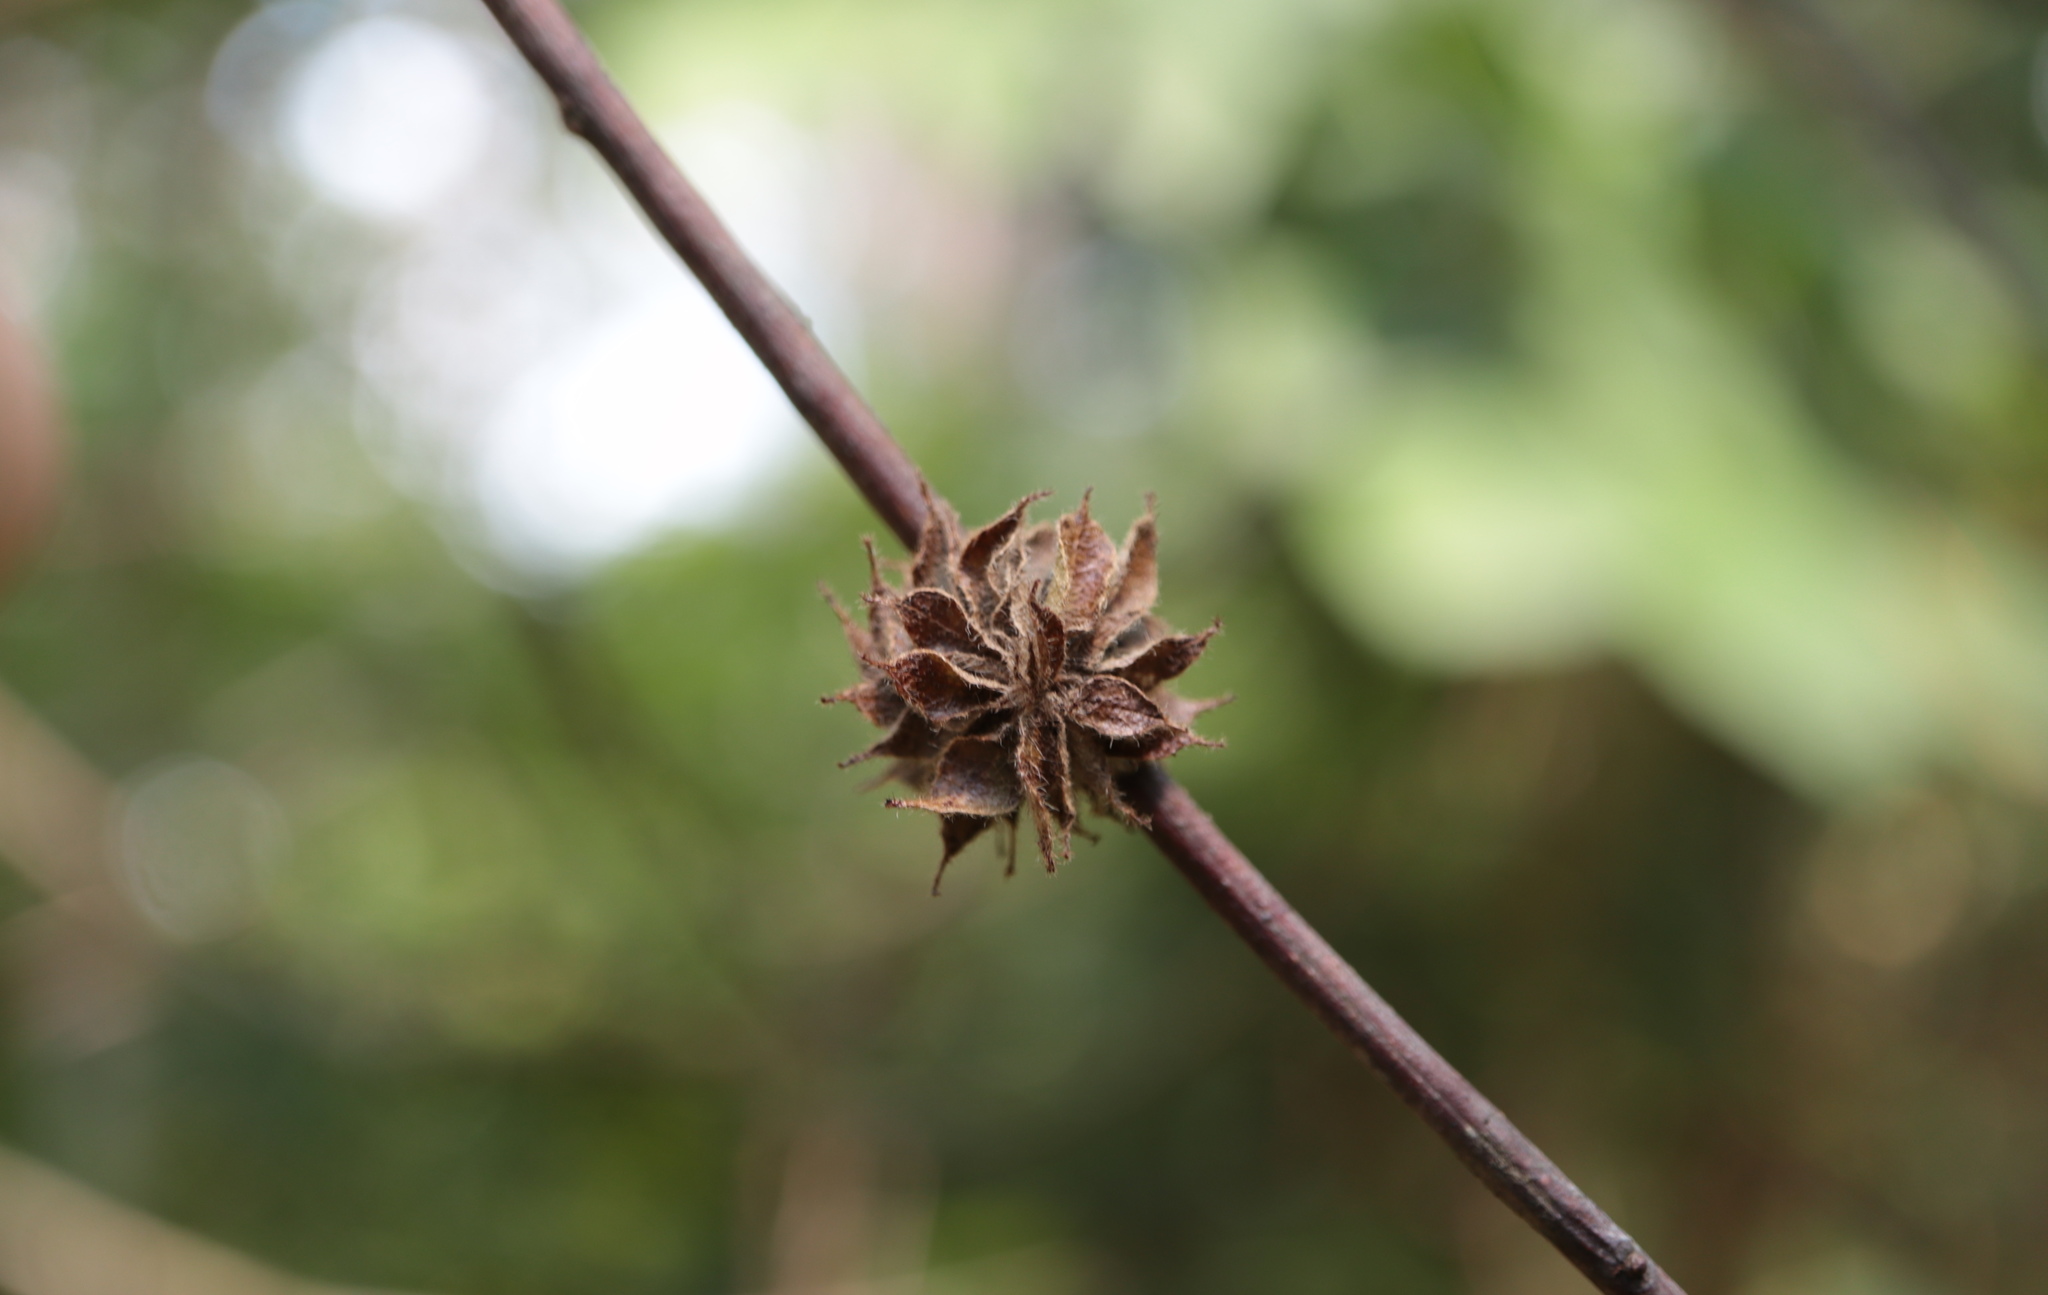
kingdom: Animalia
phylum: Arthropoda
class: Insecta
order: Hymenoptera
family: Cynipidae
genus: Dryocosmus
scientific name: Dryocosmus
